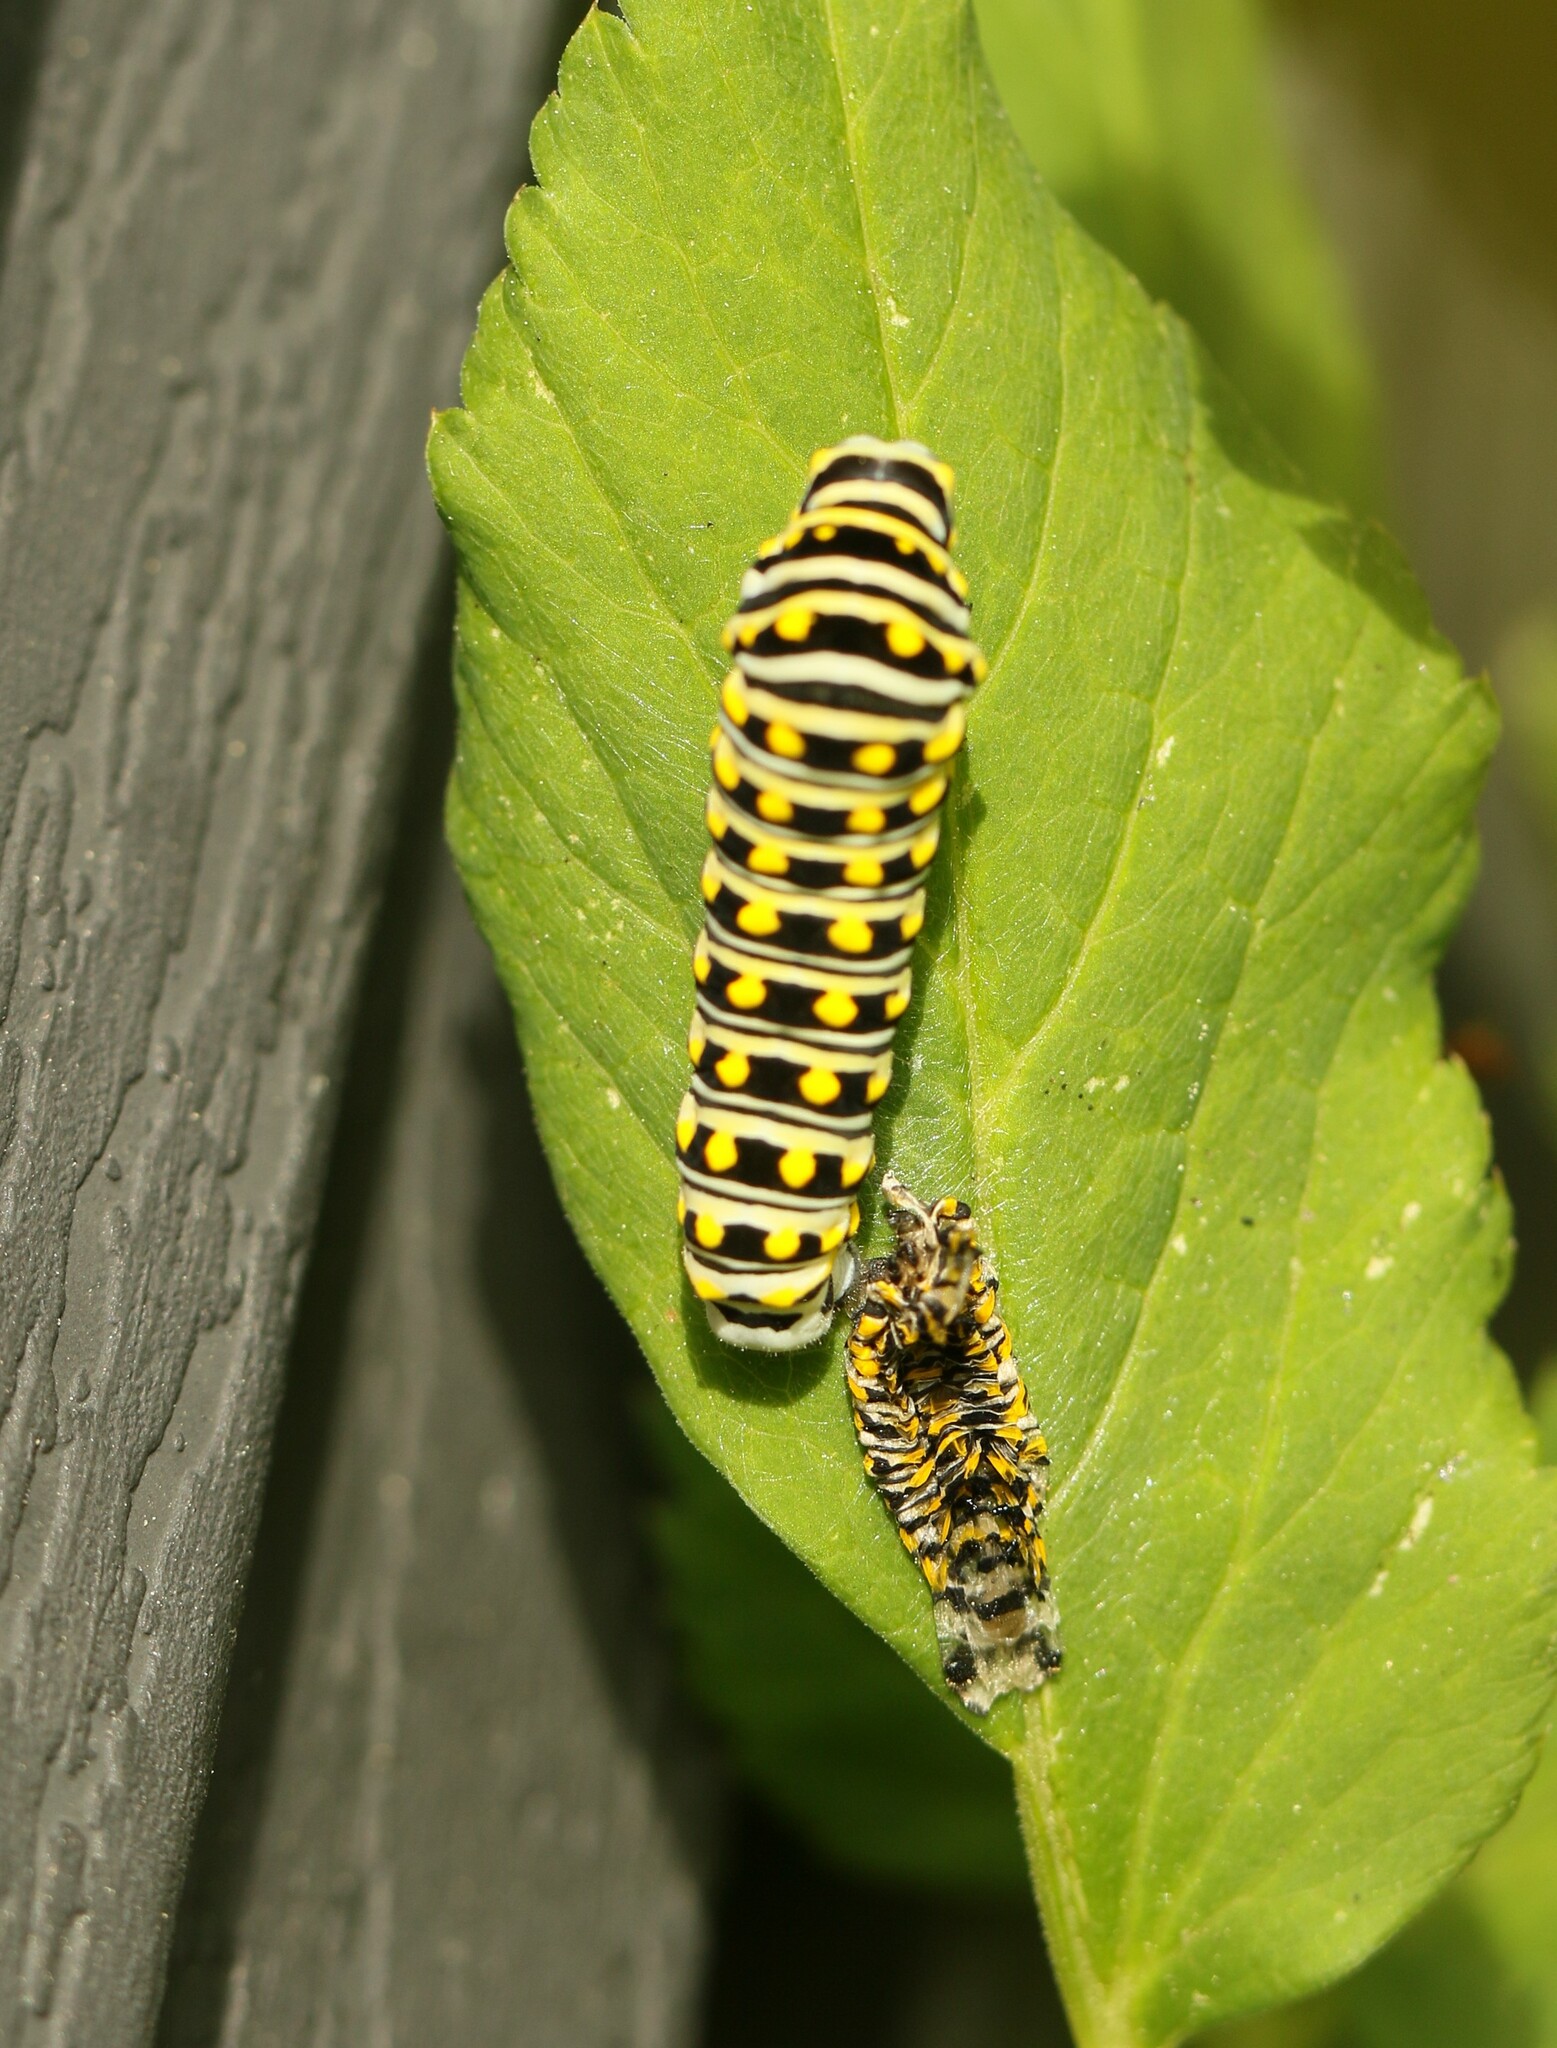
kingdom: Animalia
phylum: Arthropoda
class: Insecta
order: Lepidoptera
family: Papilionidae
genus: Papilio
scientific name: Papilio polyxenes
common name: Black swallowtail
